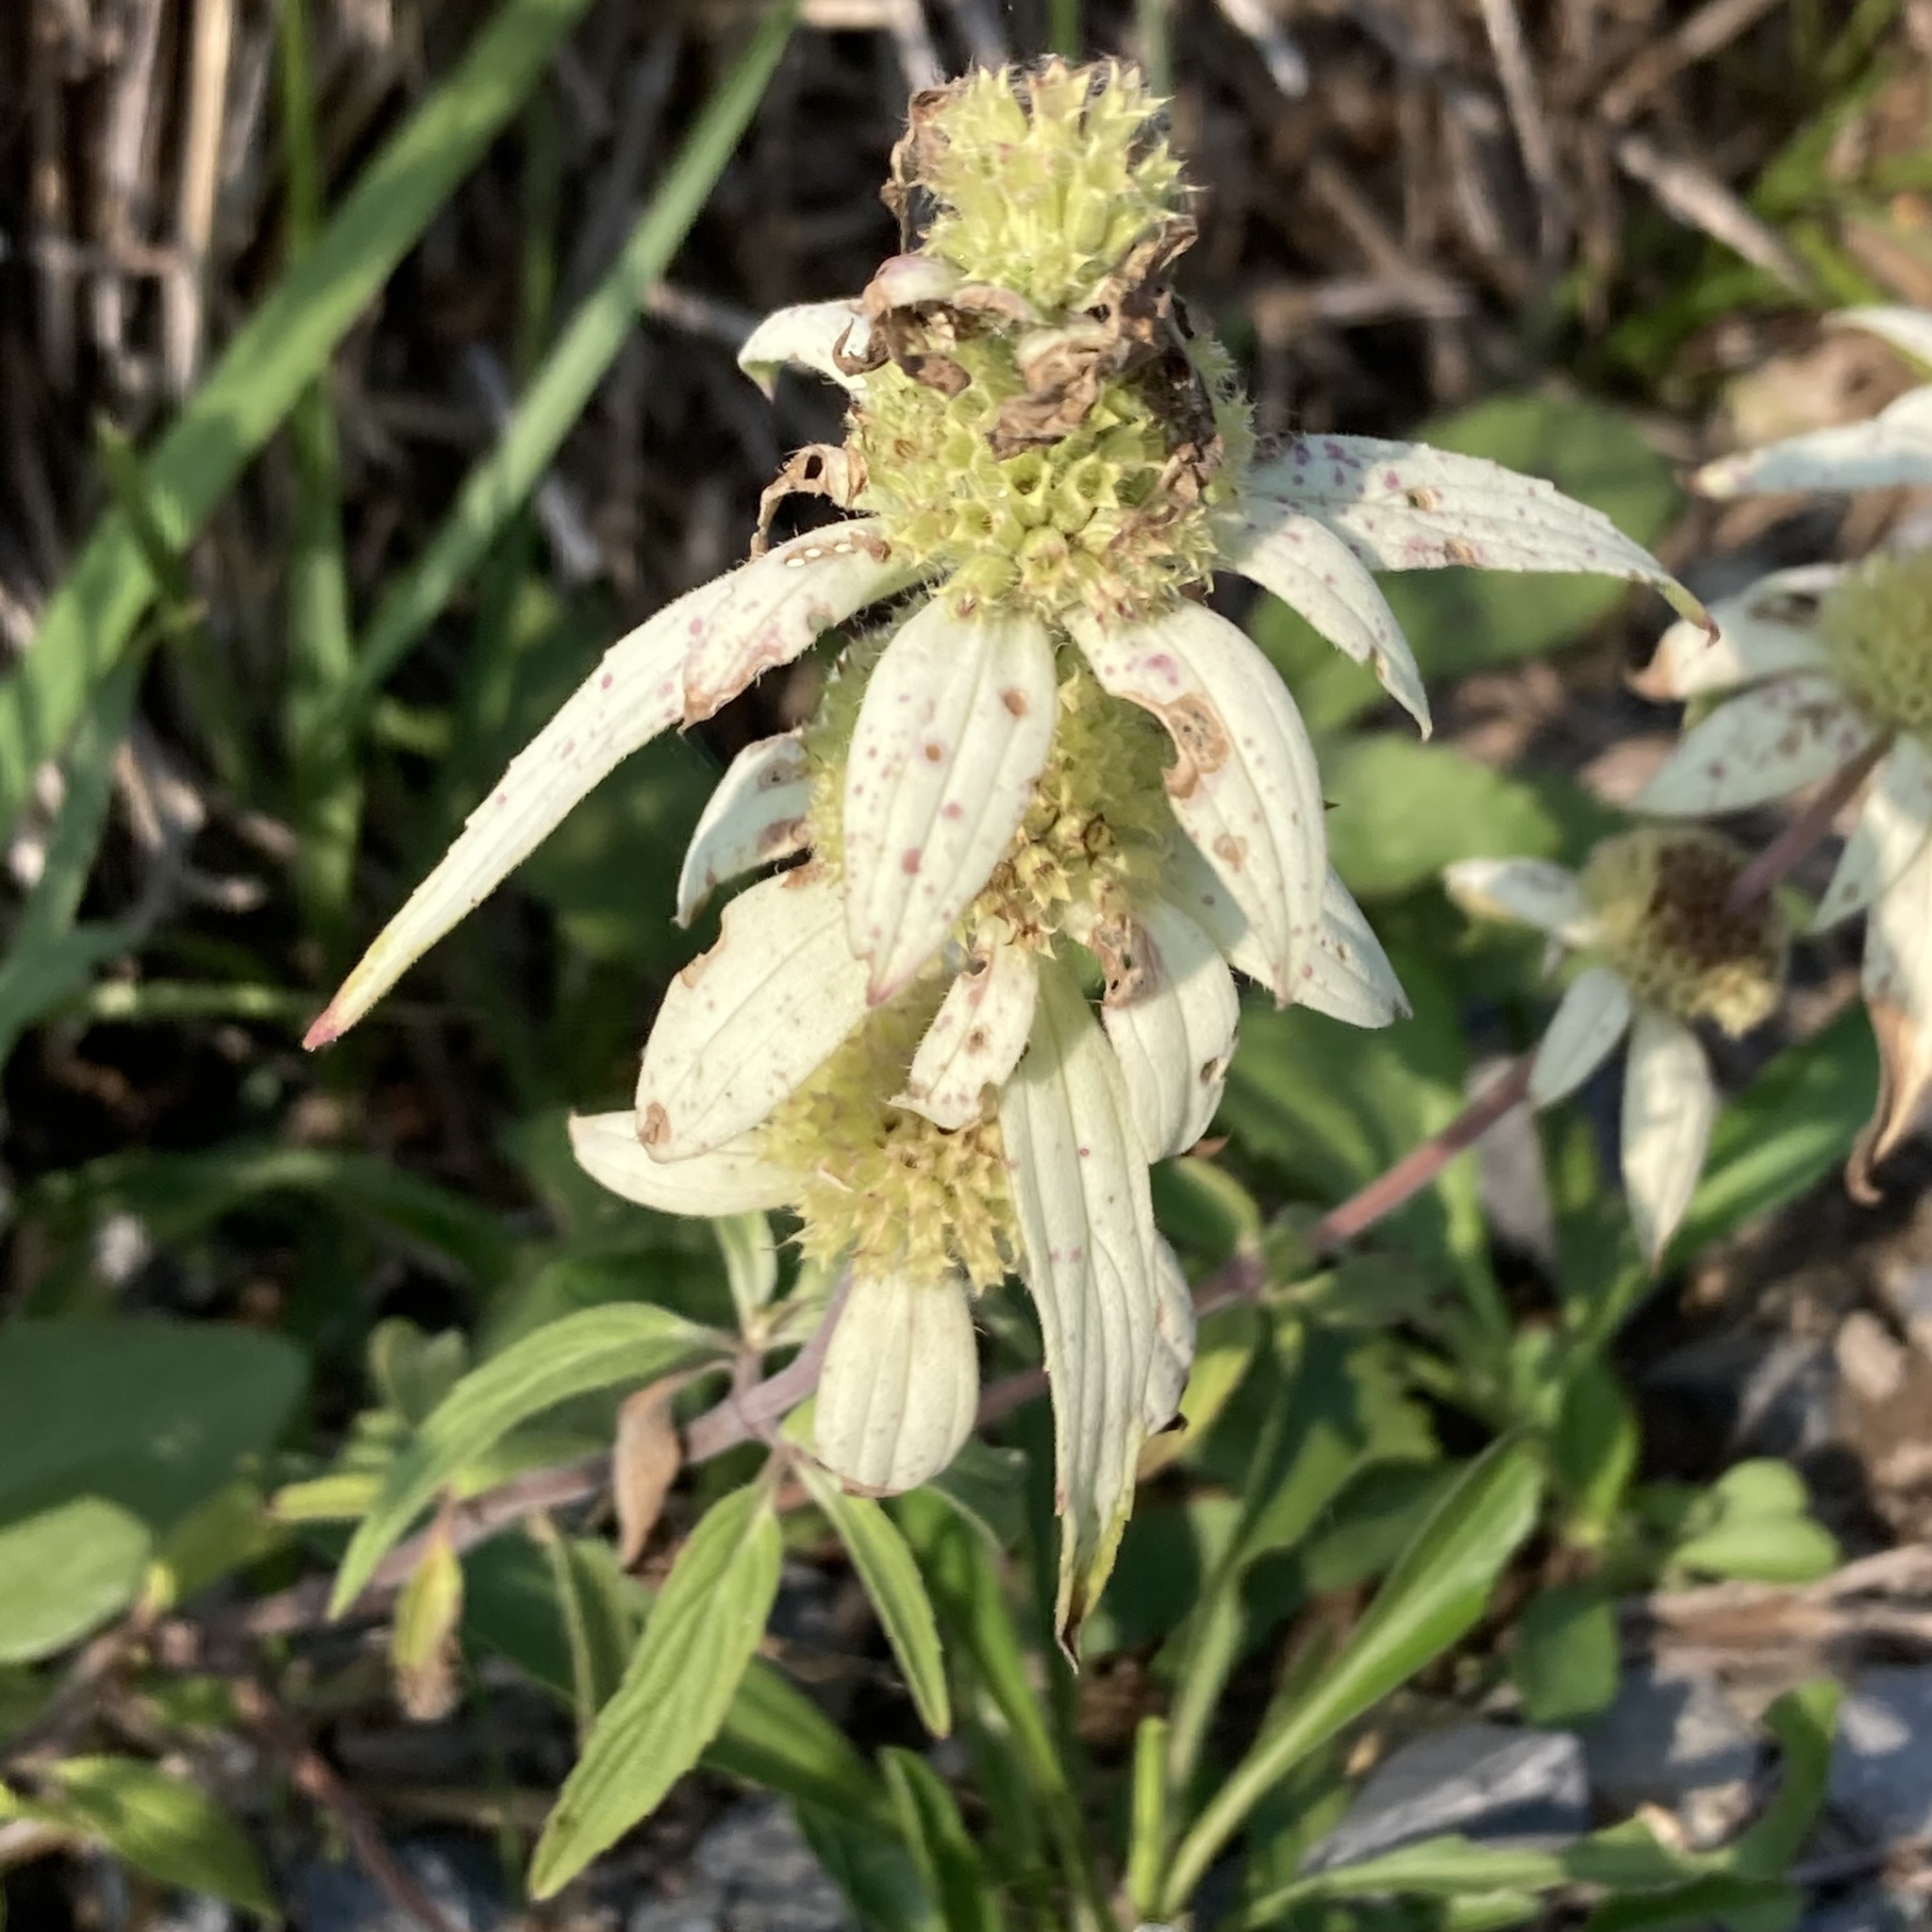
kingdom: Plantae
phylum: Tracheophyta
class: Magnoliopsida
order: Lamiales
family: Lamiaceae
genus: Monarda
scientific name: Monarda punctata
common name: Dotted monarda
